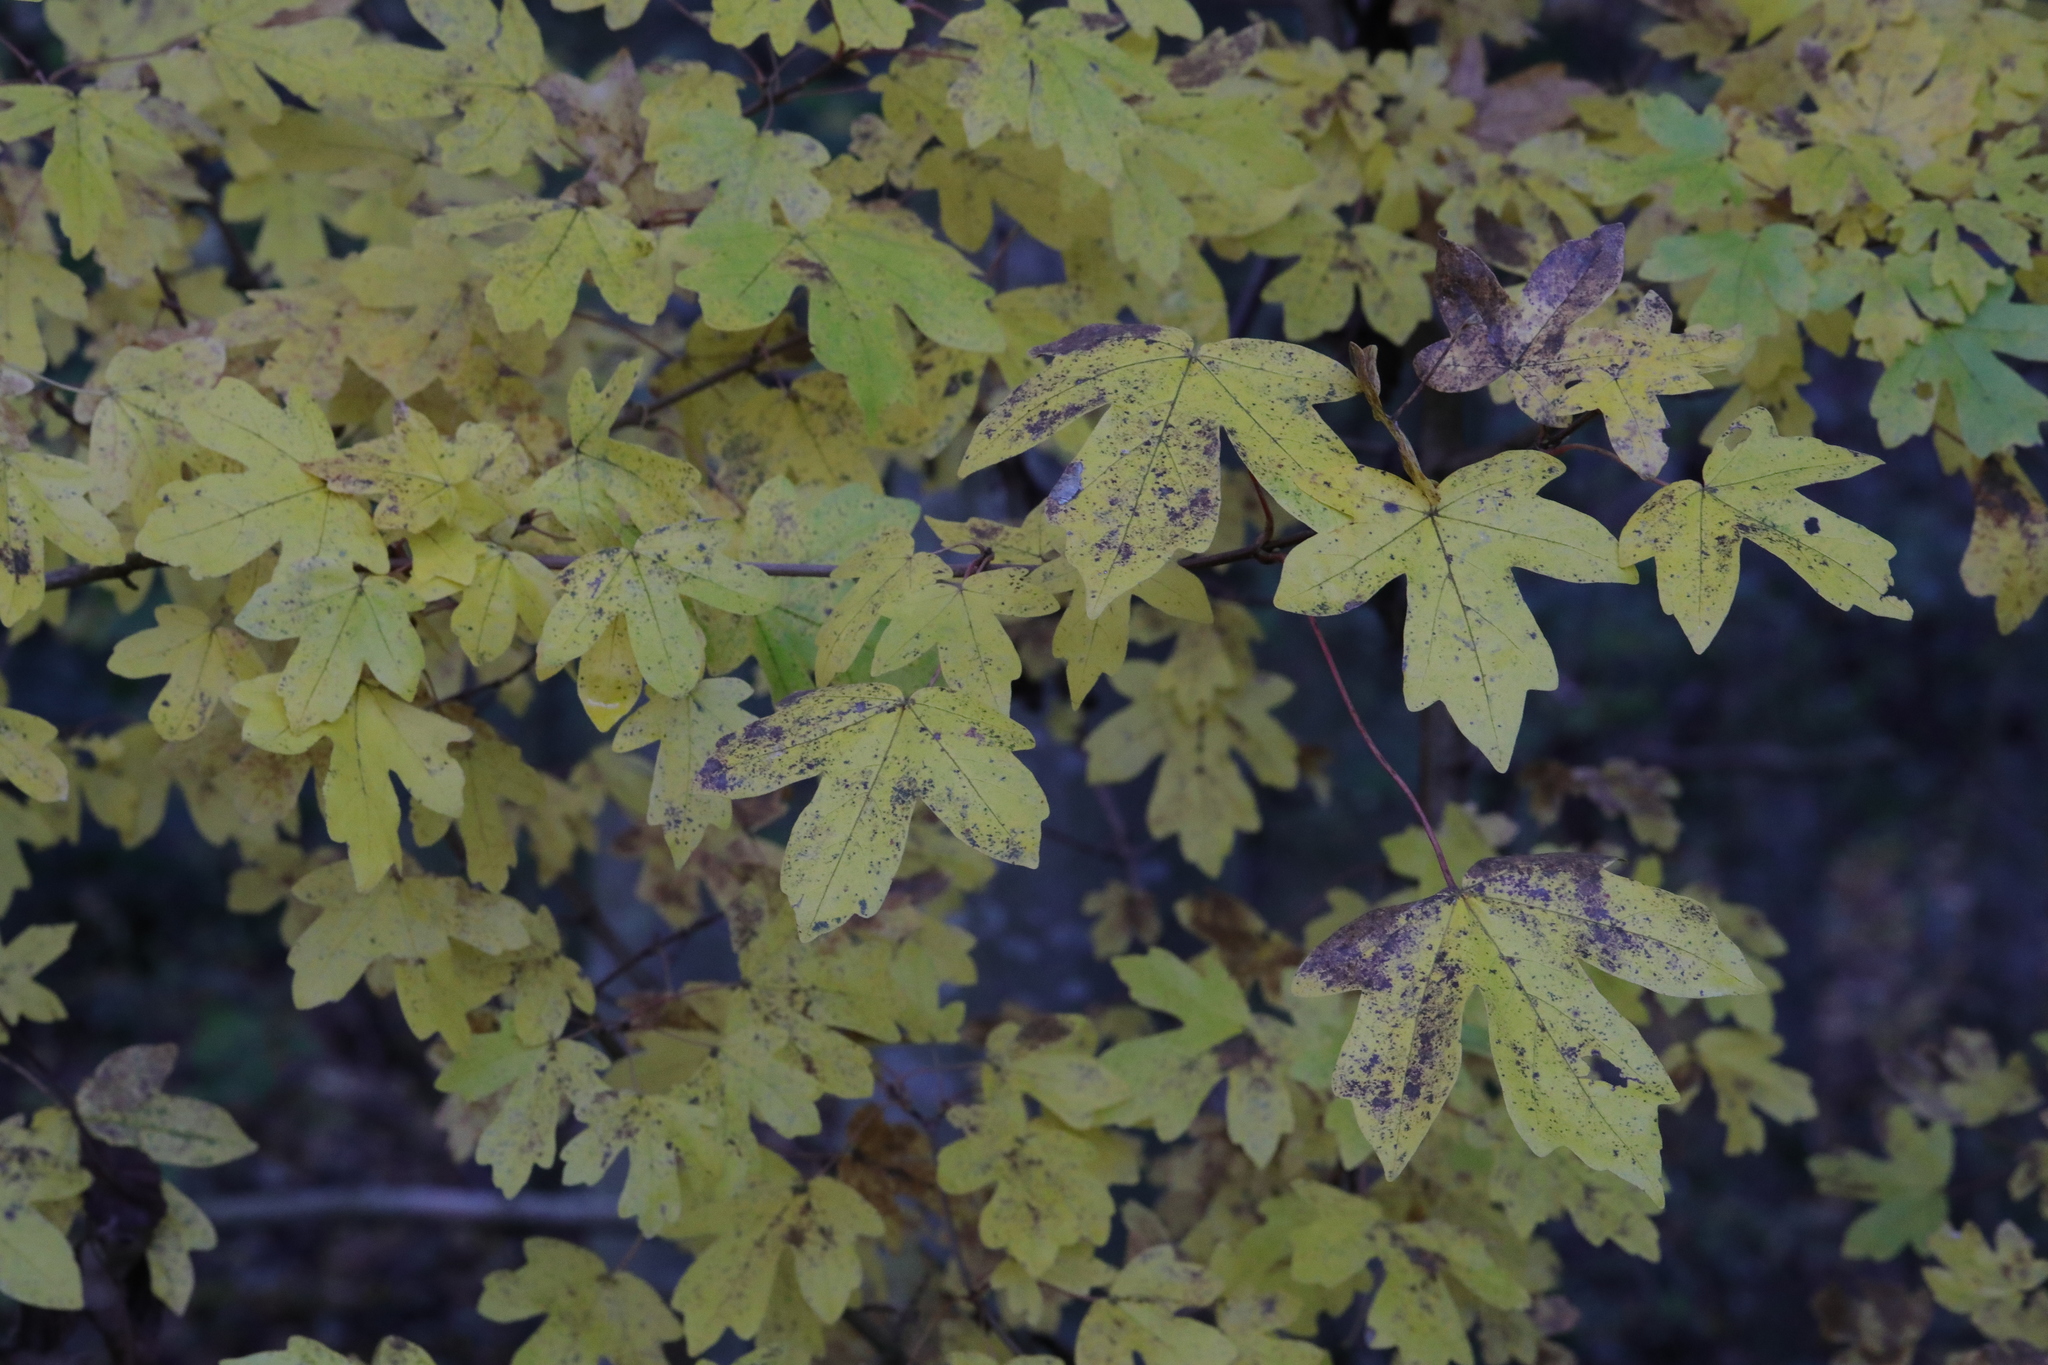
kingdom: Plantae
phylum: Tracheophyta
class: Magnoliopsida
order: Sapindales
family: Sapindaceae
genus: Acer
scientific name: Acer campestre
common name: Field maple
